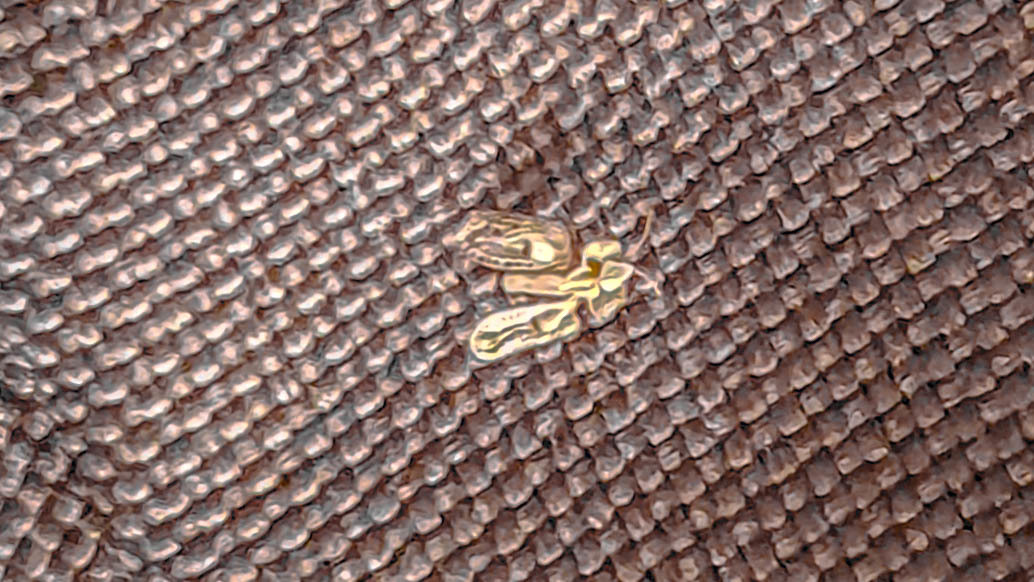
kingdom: Animalia
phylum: Arthropoda
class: Insecta
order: Hemiptera
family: Tingidae
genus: Corythucha
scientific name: Corythucha ciliata
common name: Sycamore lace bug
